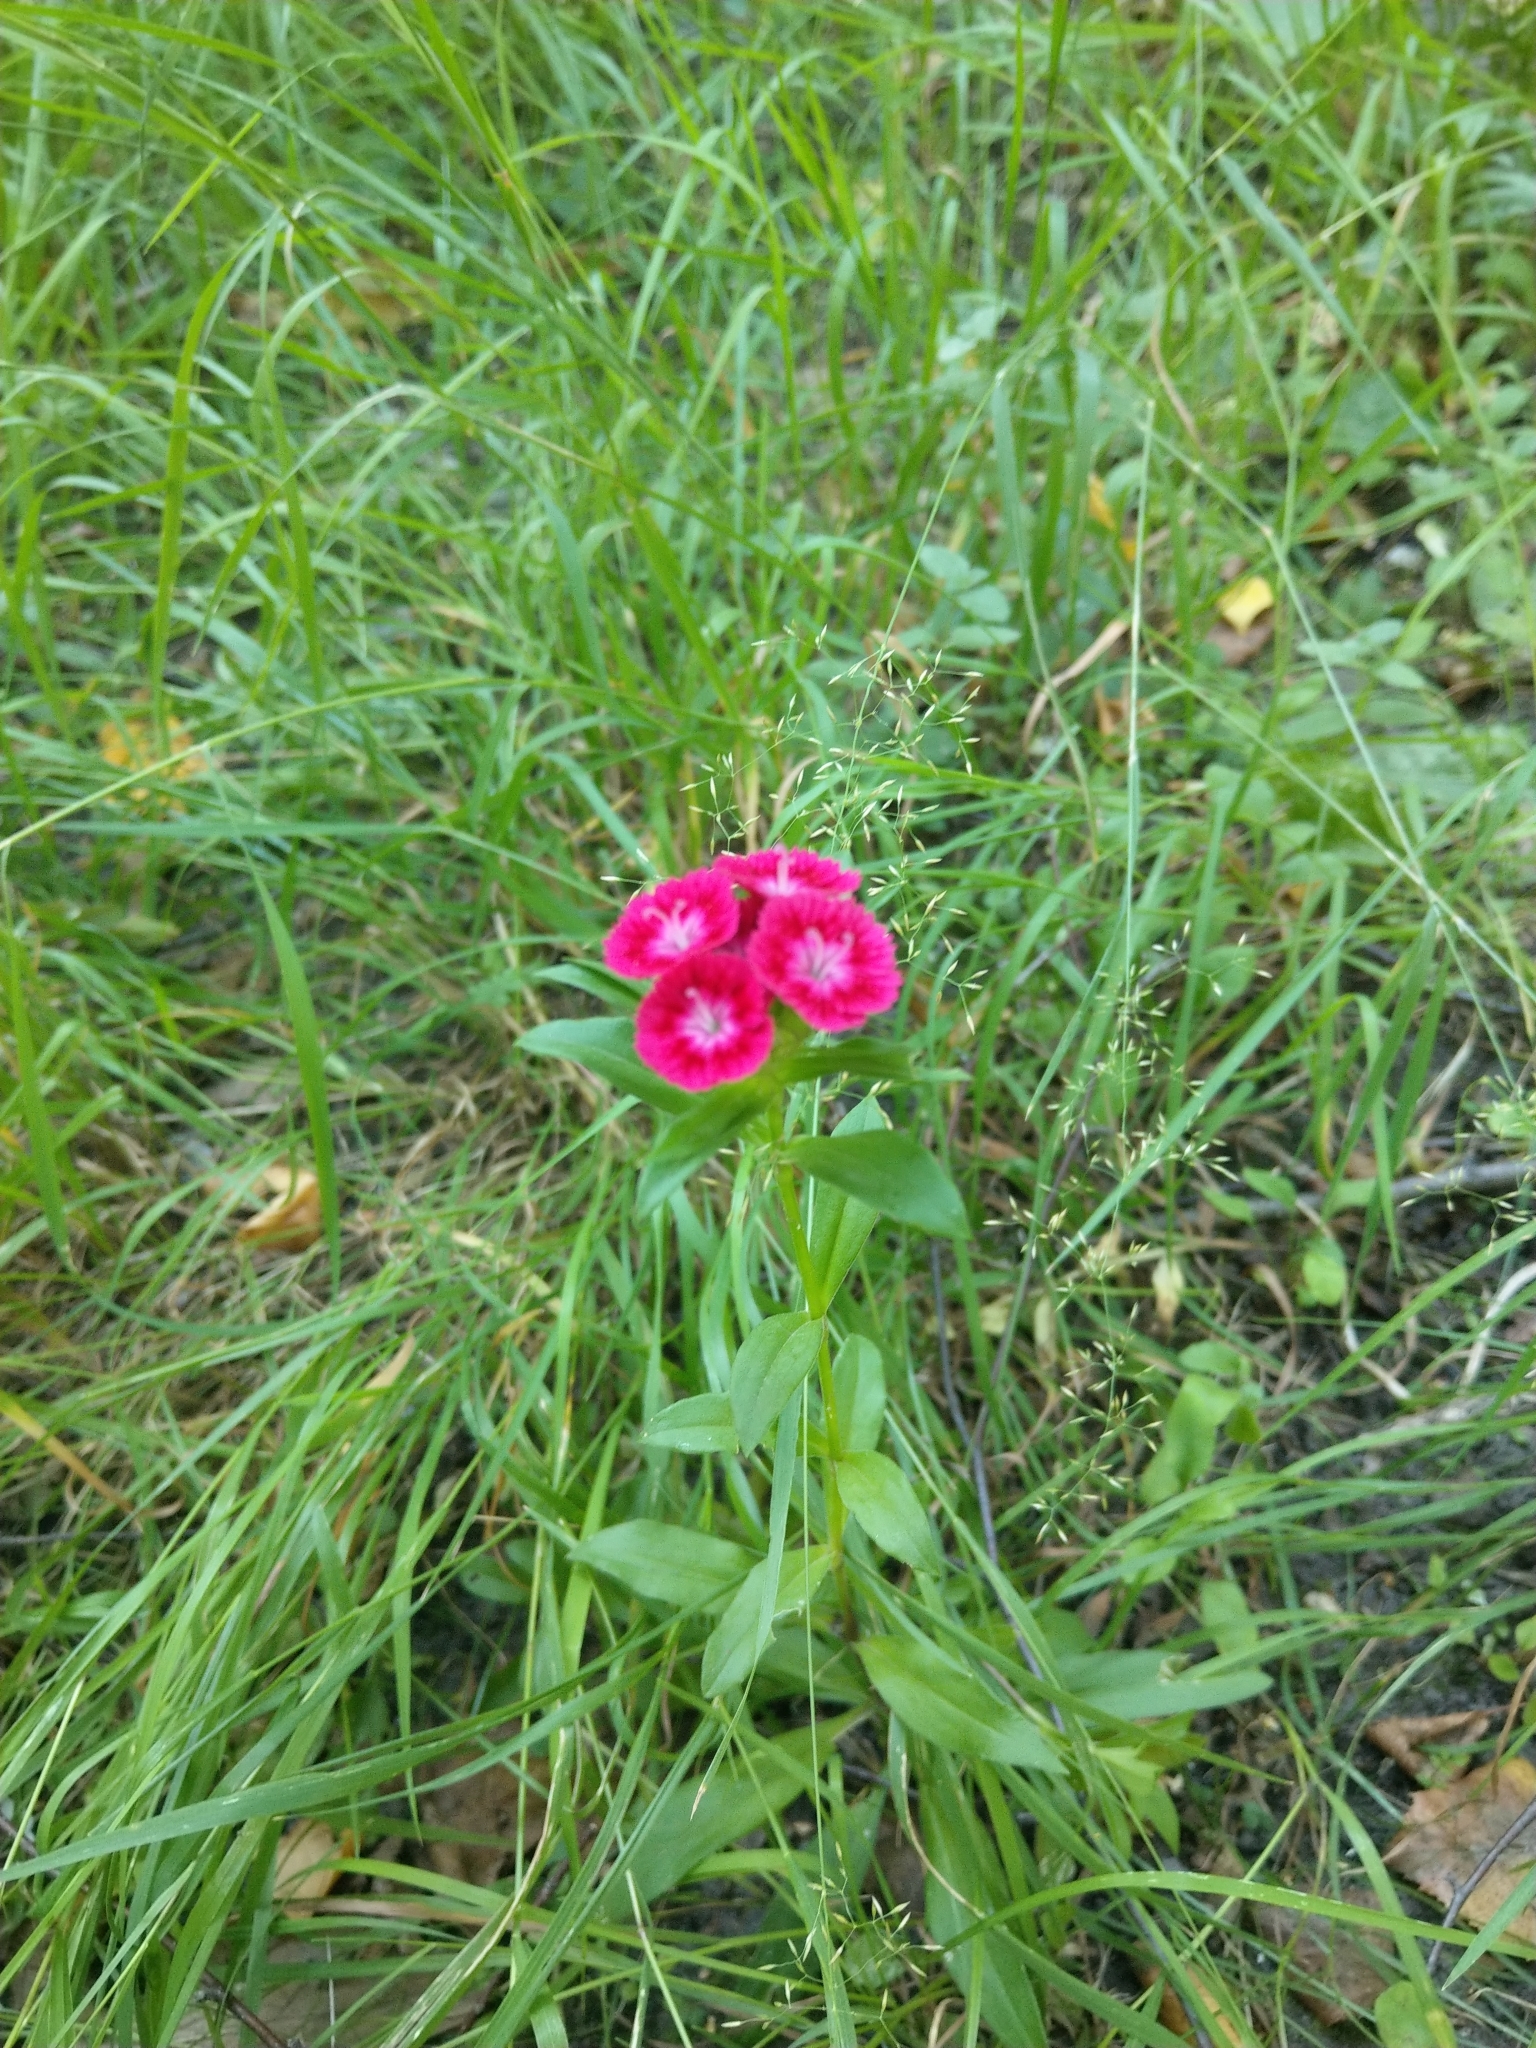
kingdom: Plantae
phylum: Tracheophyta
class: Magnoliopsida
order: Caryophyllales
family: Caryophyllaceae
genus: Dianthus
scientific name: Dianthus barbatus
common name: Sweet-william
